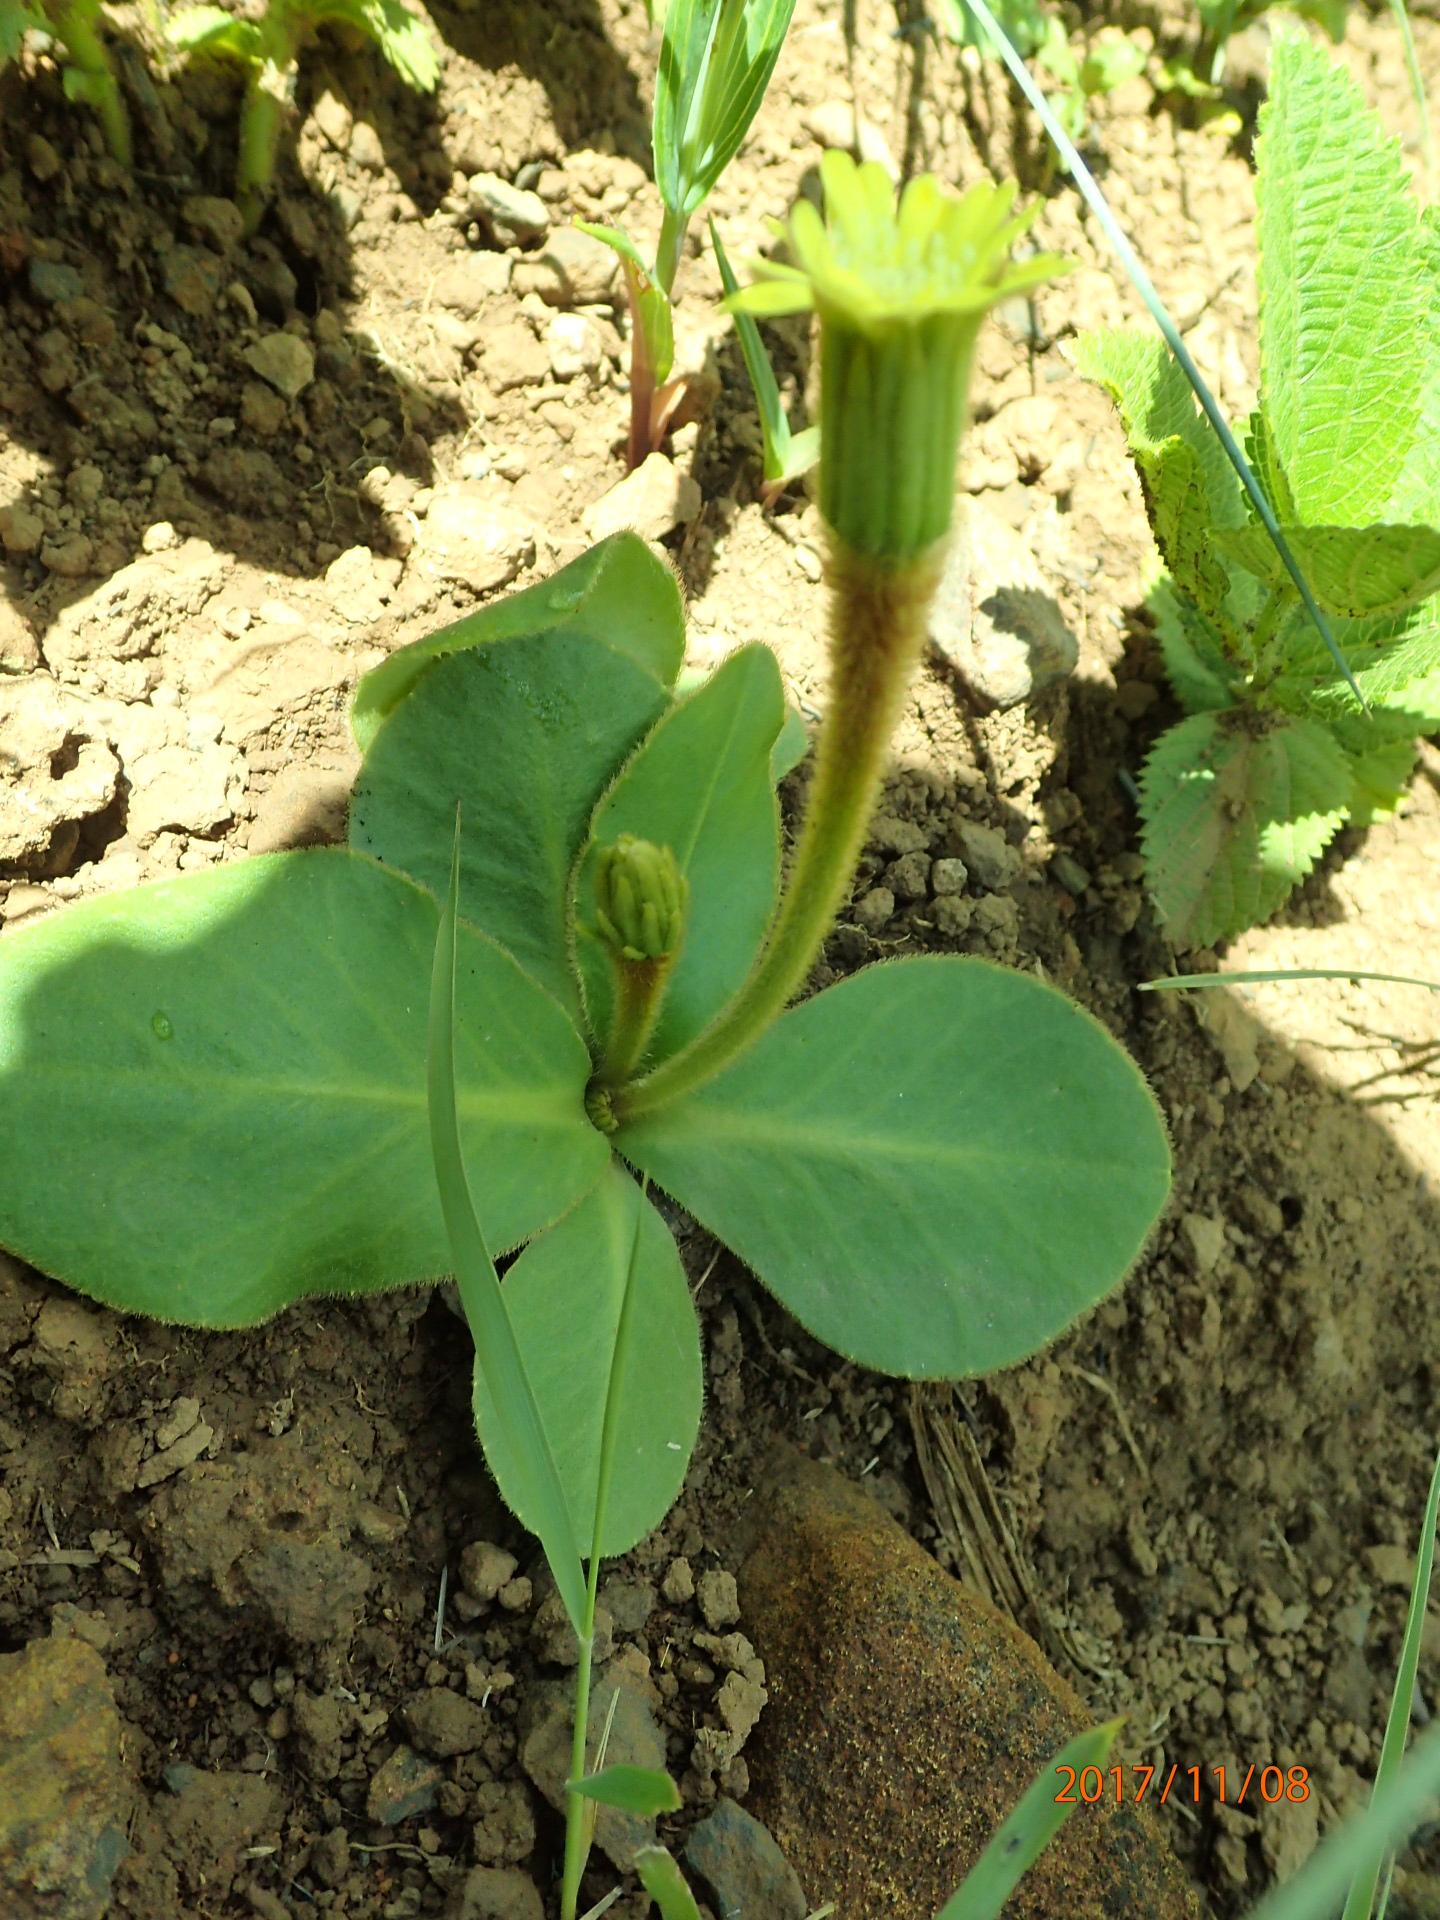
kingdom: Plantae
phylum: Tracheophyta
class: Magnoliopsida
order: Asterales
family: Asteraceae
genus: Piloselloides
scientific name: Piloselloides hirsuta
